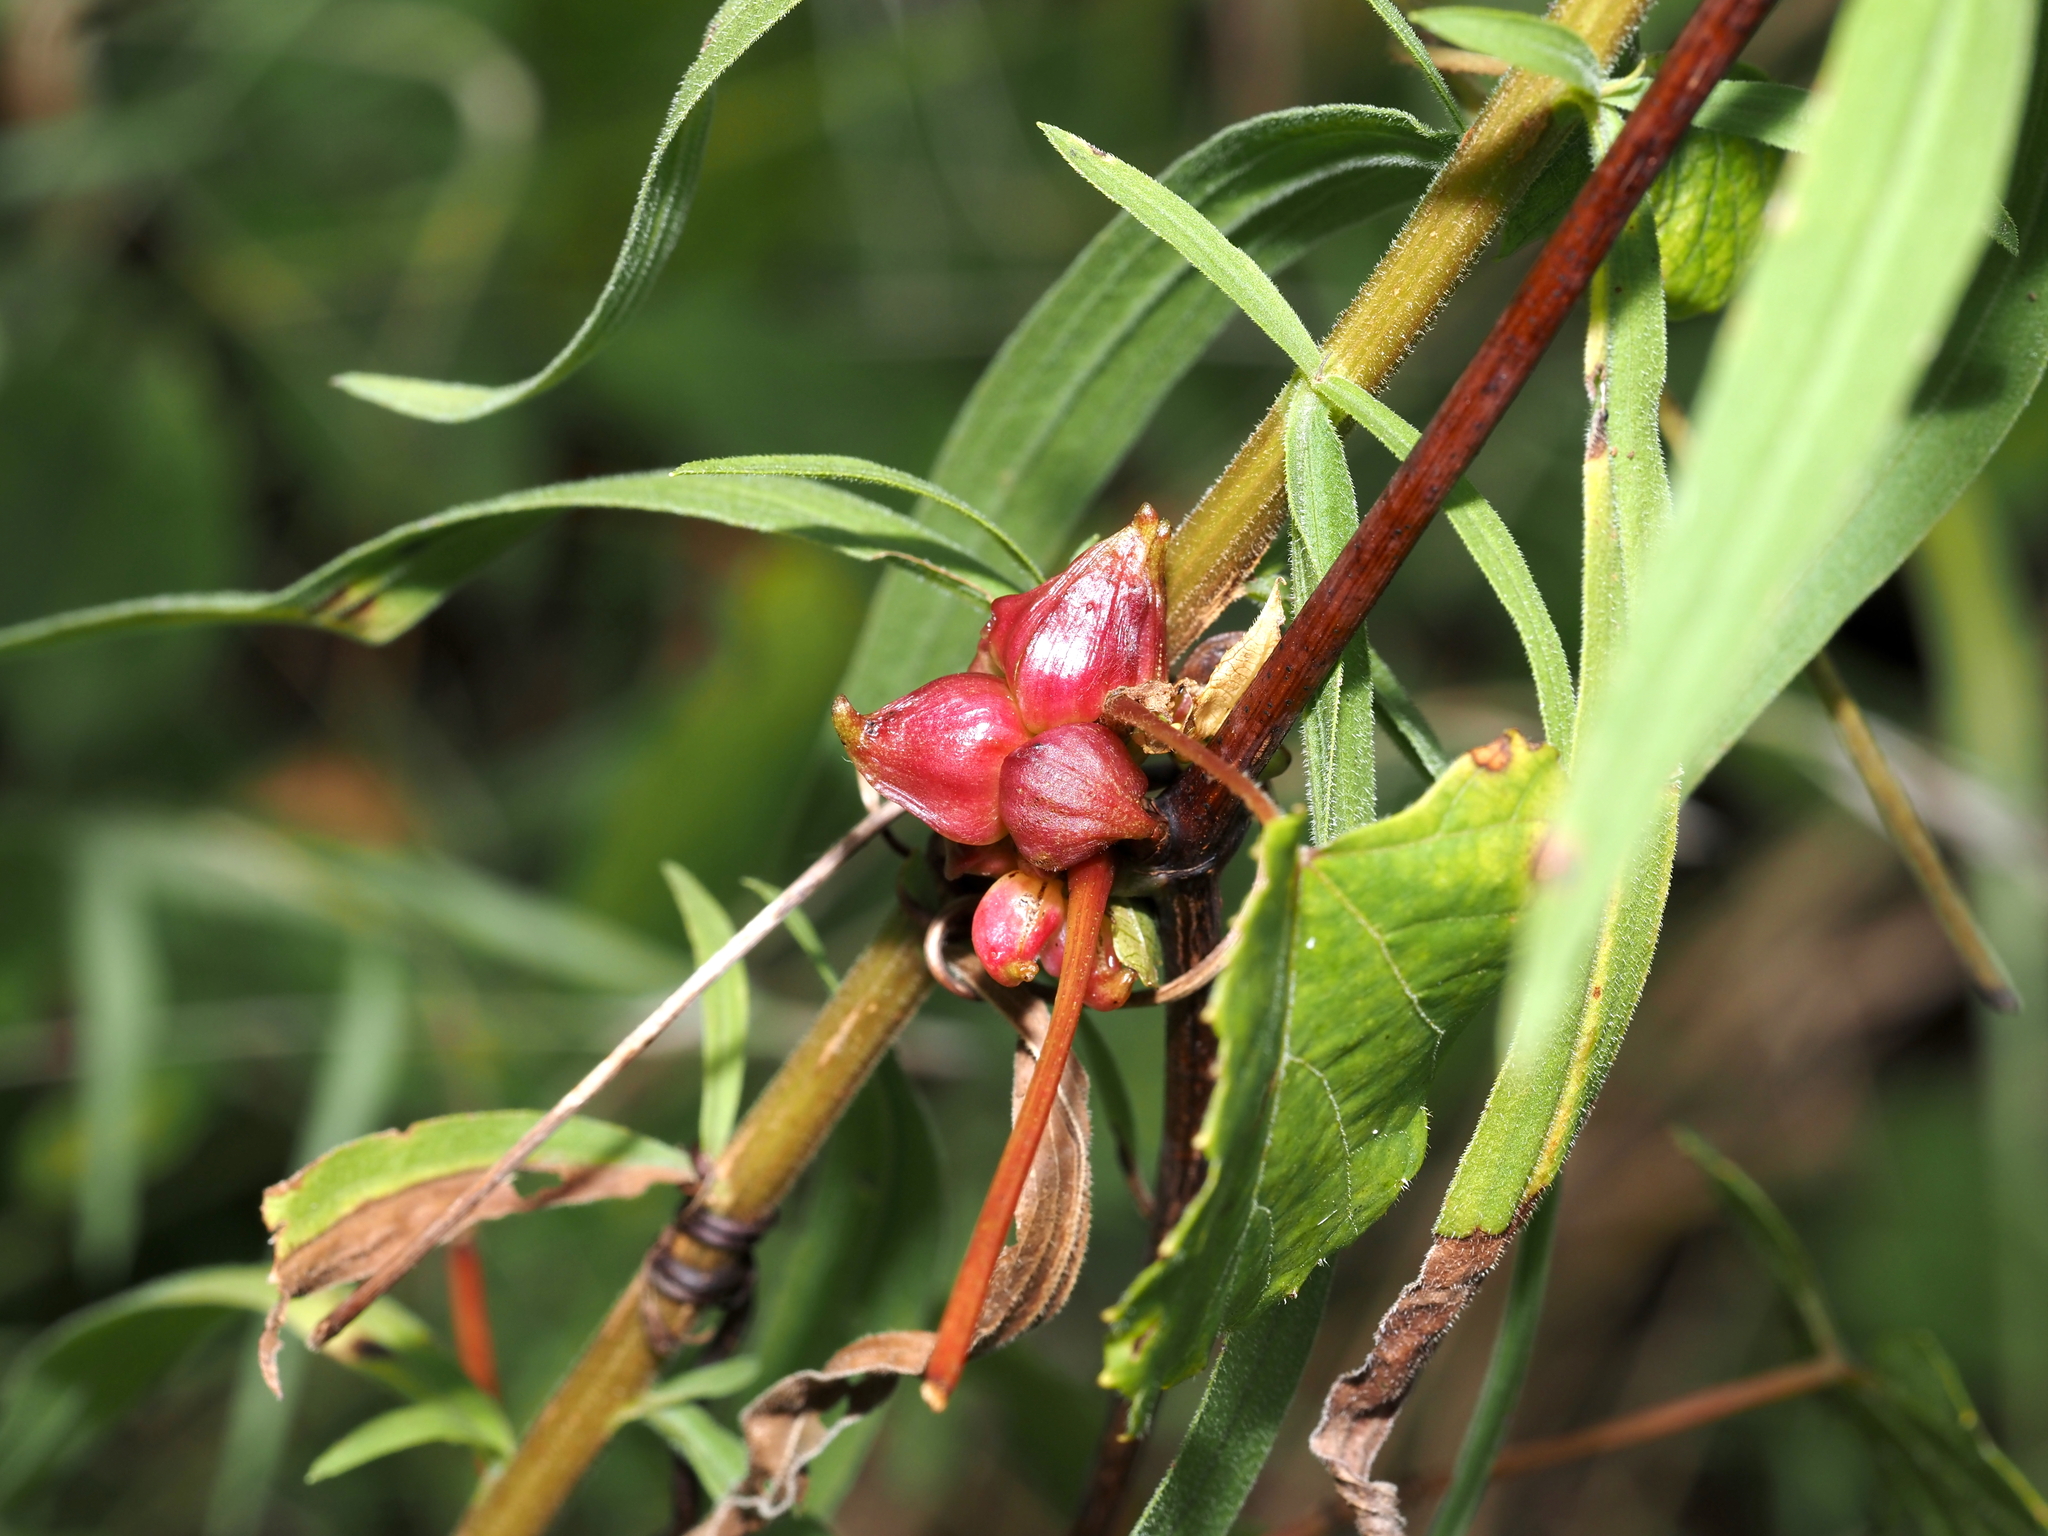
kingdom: Animalia
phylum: Arthropoda
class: Insecta
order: Diptera
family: Cecidomyiidae
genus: Ampelomyia
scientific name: Ampelomyia vitiscoryloides
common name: Grape filbert gall
